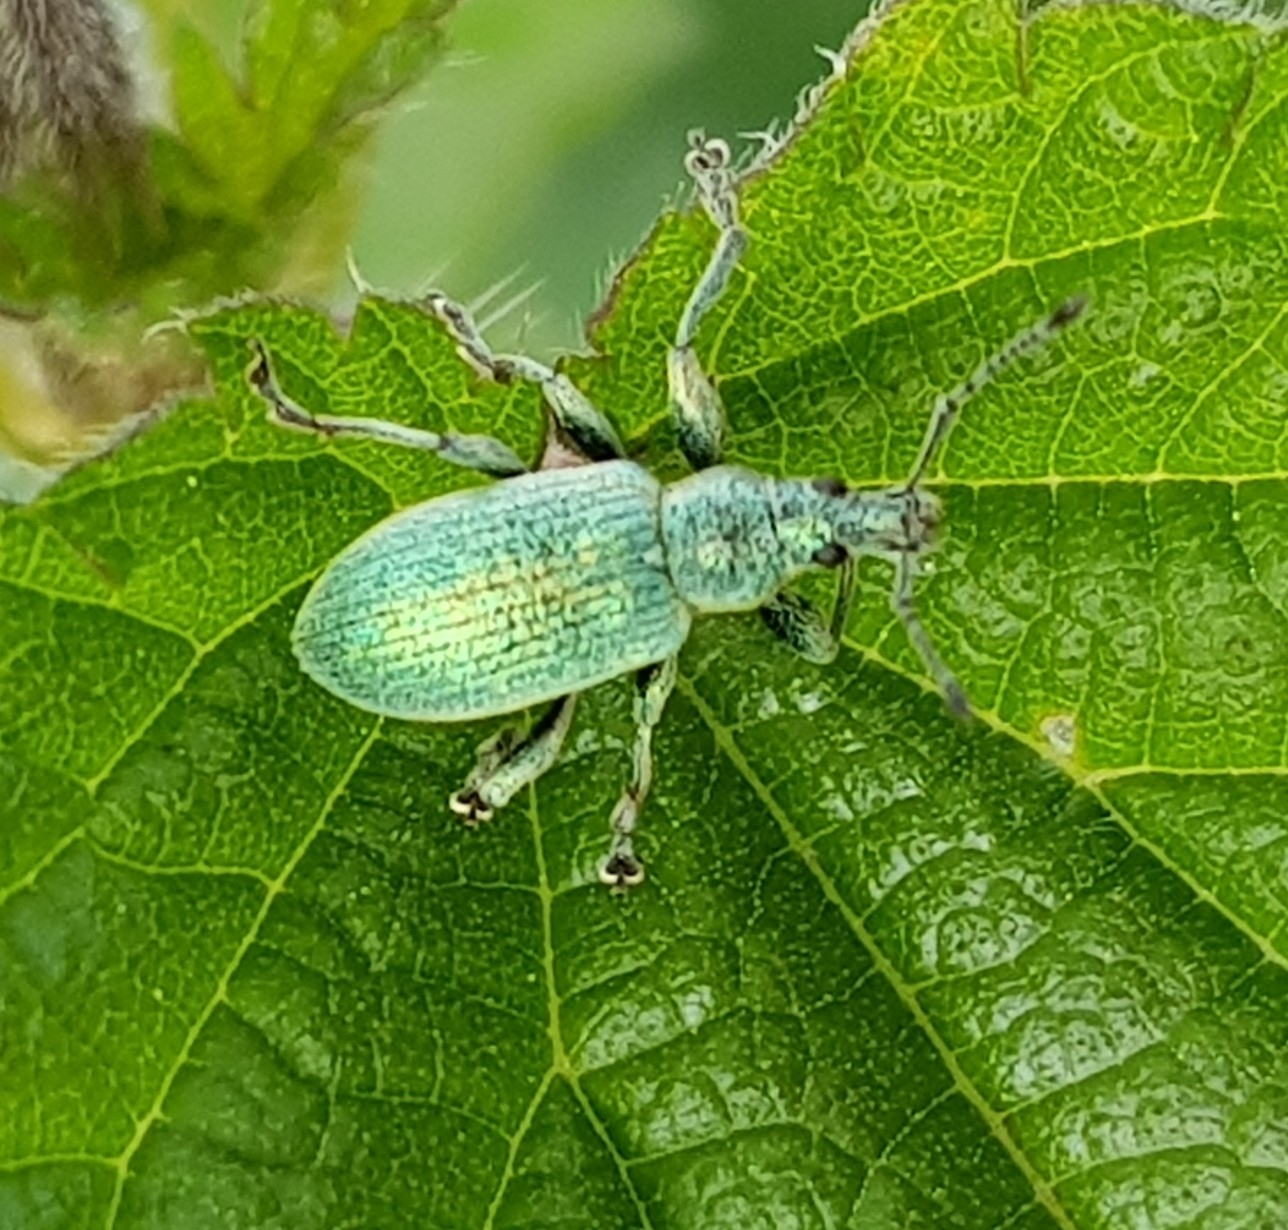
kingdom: Animalia
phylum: Arthropoda
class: Insecta
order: Coleoptera
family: Curculionidae
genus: Phyllobius
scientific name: Phyllobius pomaceus
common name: Green nettle weevil
